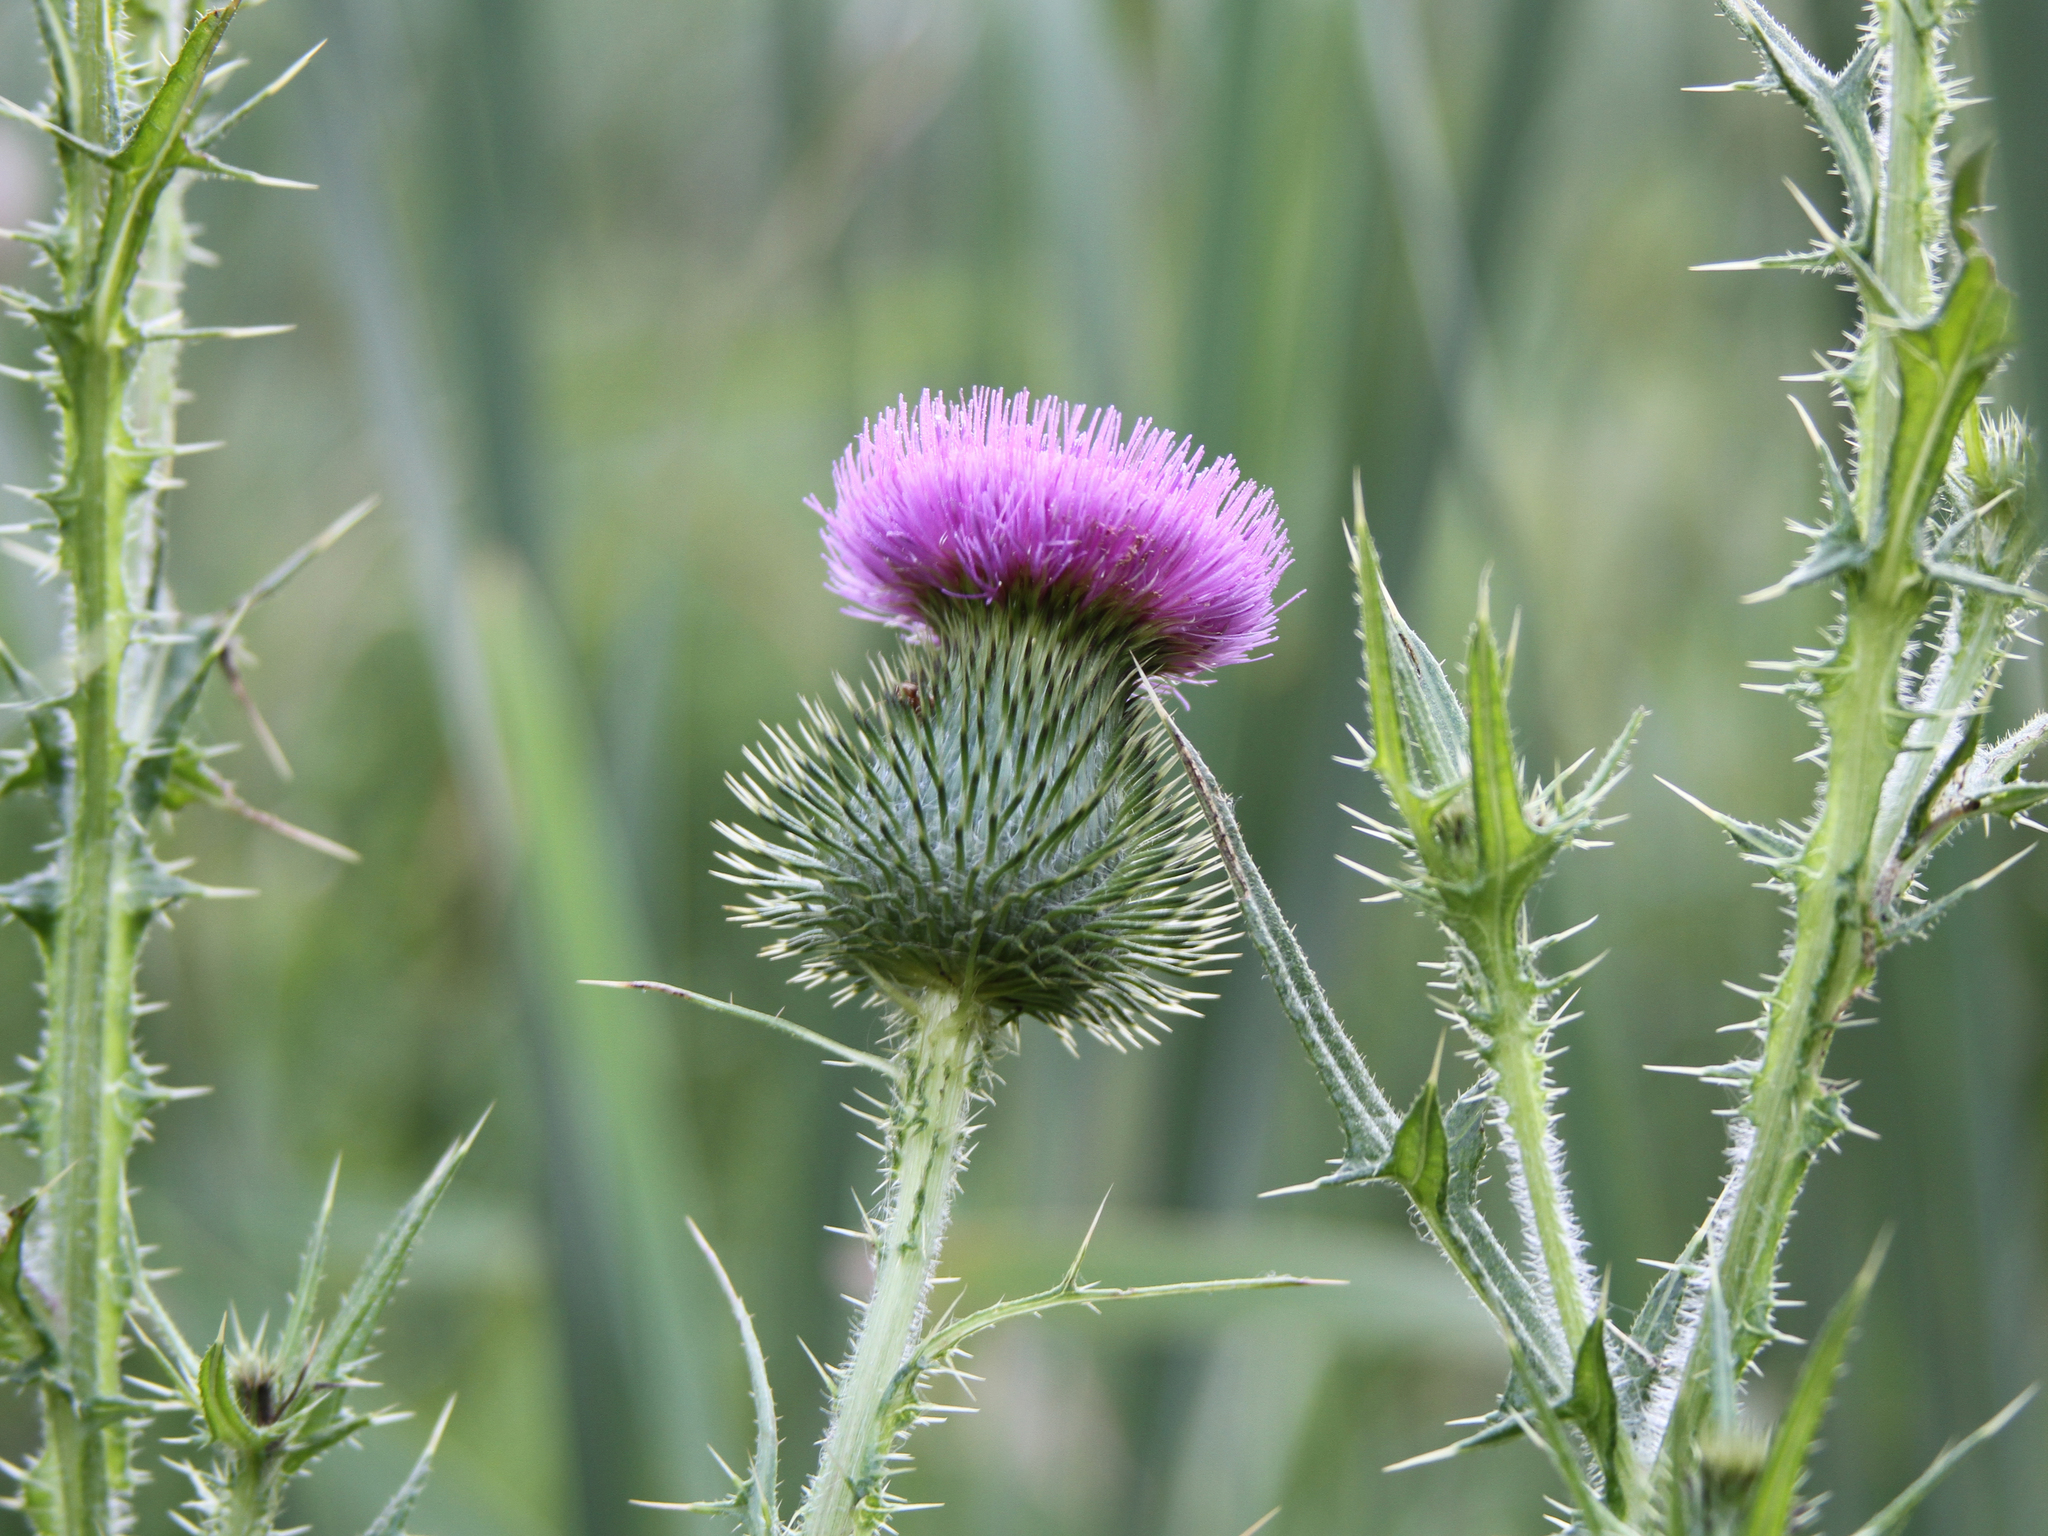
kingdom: Plantae
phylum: Tracheophyta
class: Magnoliopsida
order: Asterales
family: Asteraceae
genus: Cirsium
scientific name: Cirsium vulgare
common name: Bull thistle
